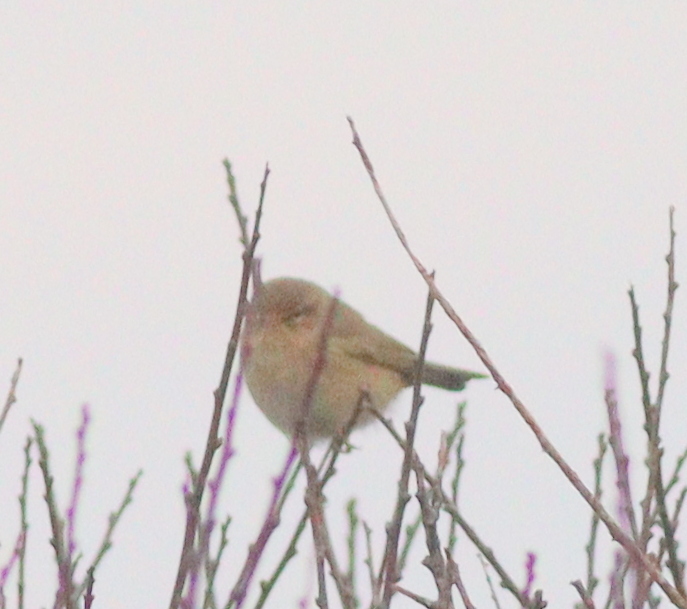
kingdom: Animalia
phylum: Chordata
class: Aves
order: Passeriformes
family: Phylloscopidae
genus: Phylloscopus
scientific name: Phylloscopus collybita
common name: Common chiffchaff
